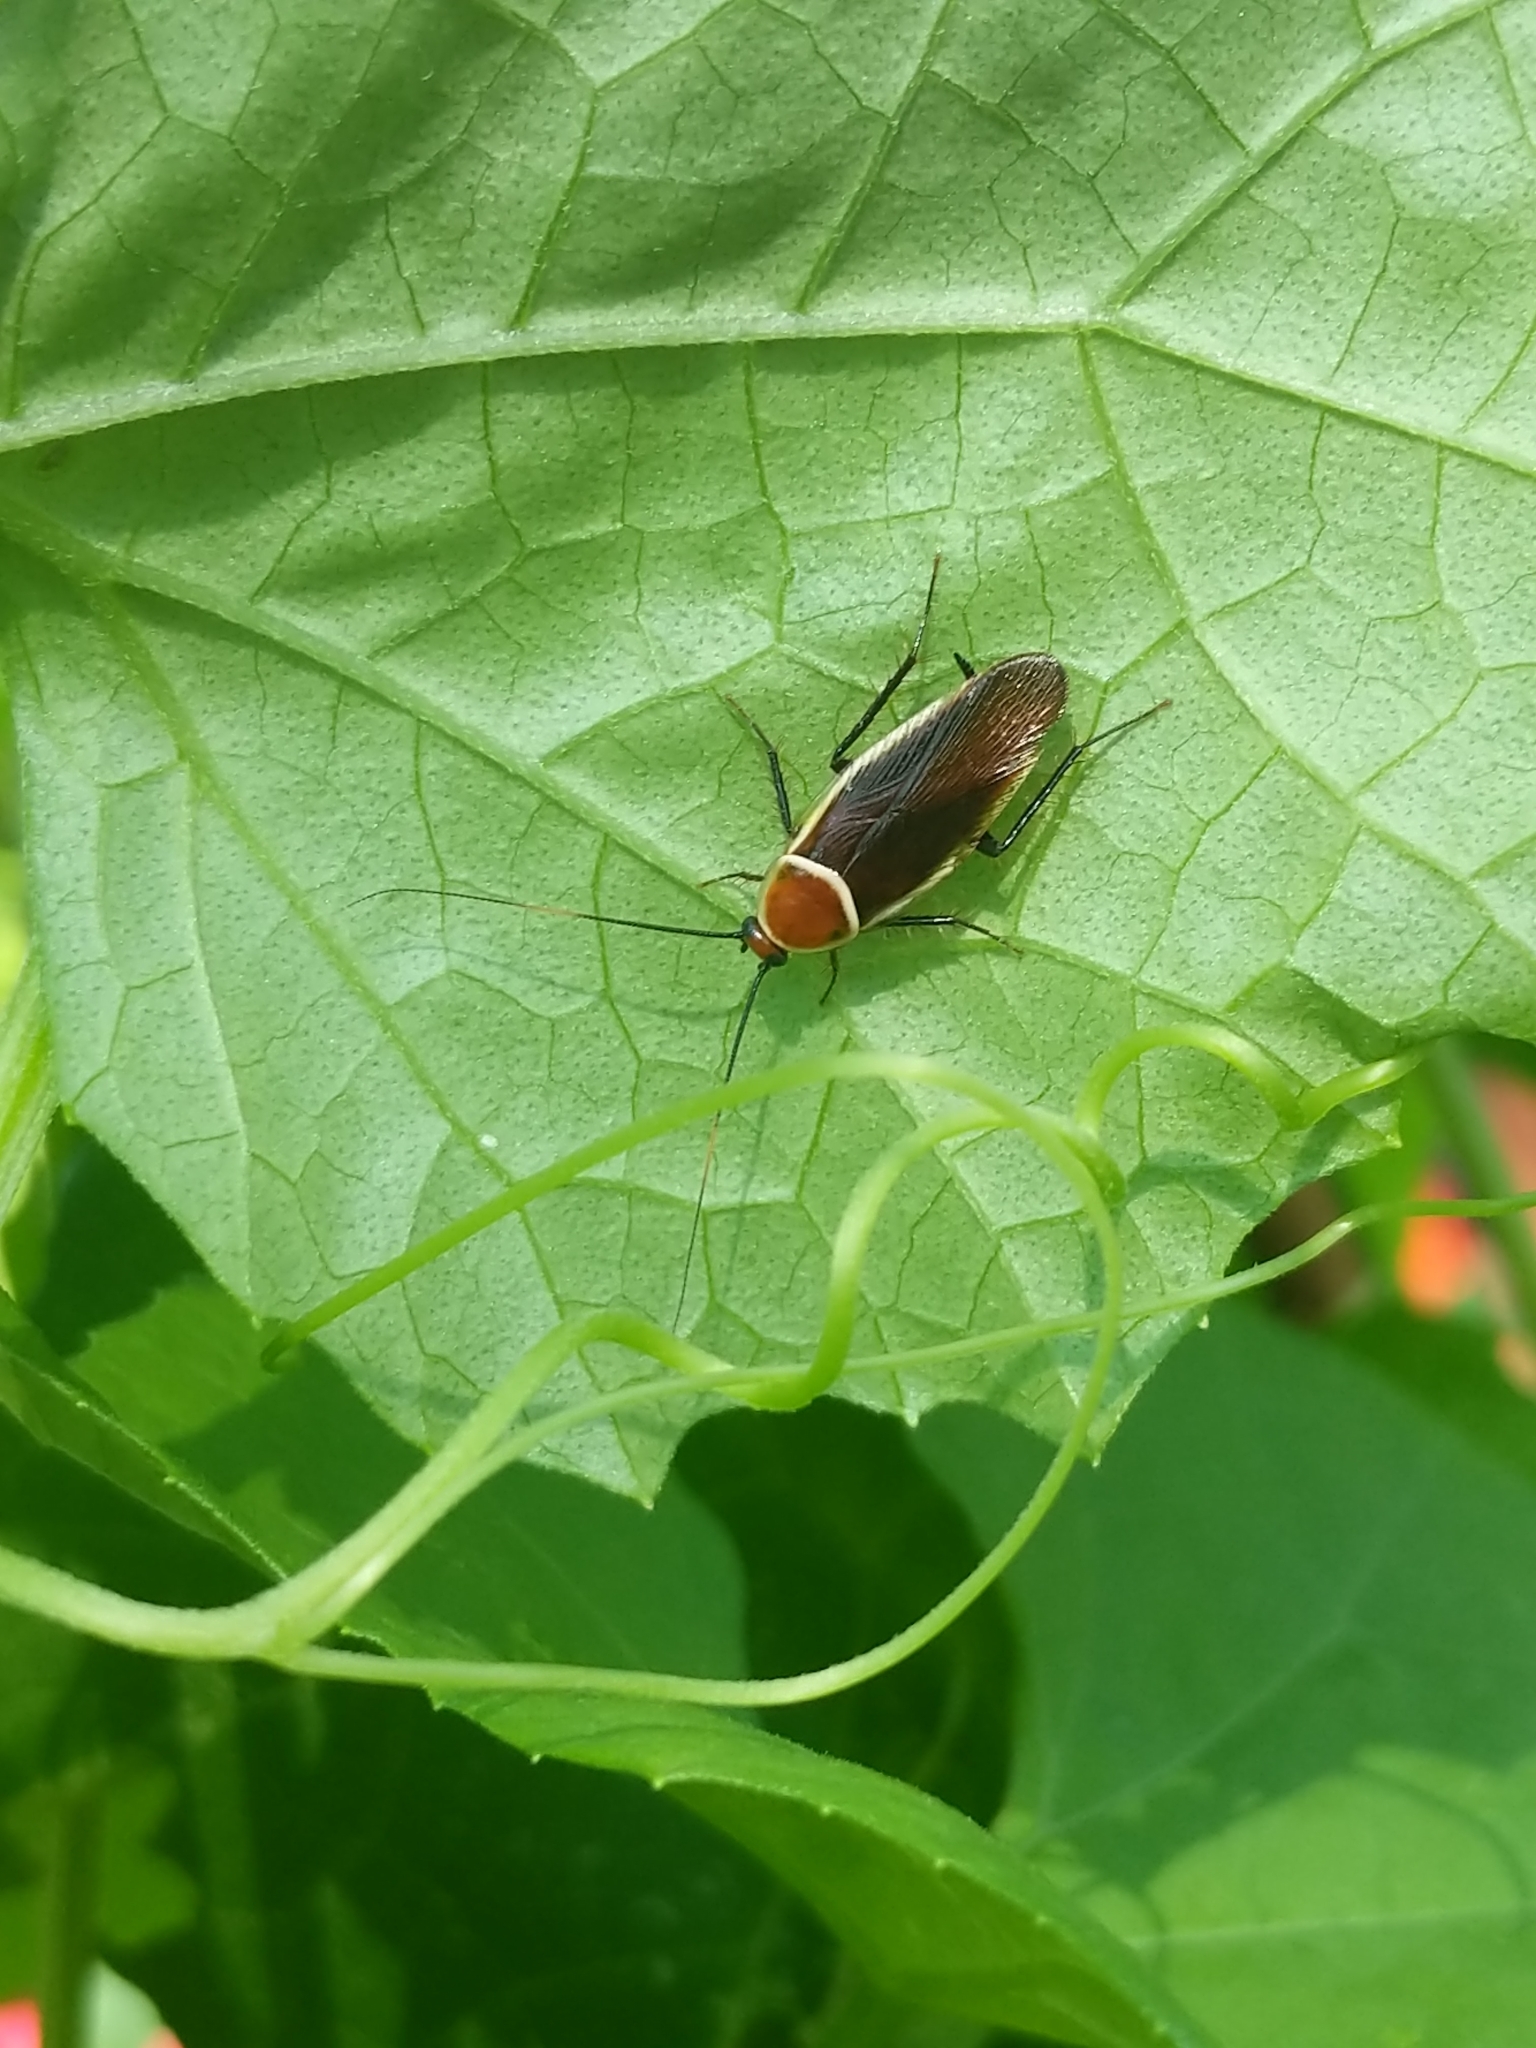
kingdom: Animalia
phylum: Arthropoda
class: Insecta
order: Blattodea
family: Ectobiidae
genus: Pseudomops
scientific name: Pseudomops septentrionalis
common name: Pale-bordered field cockroach
